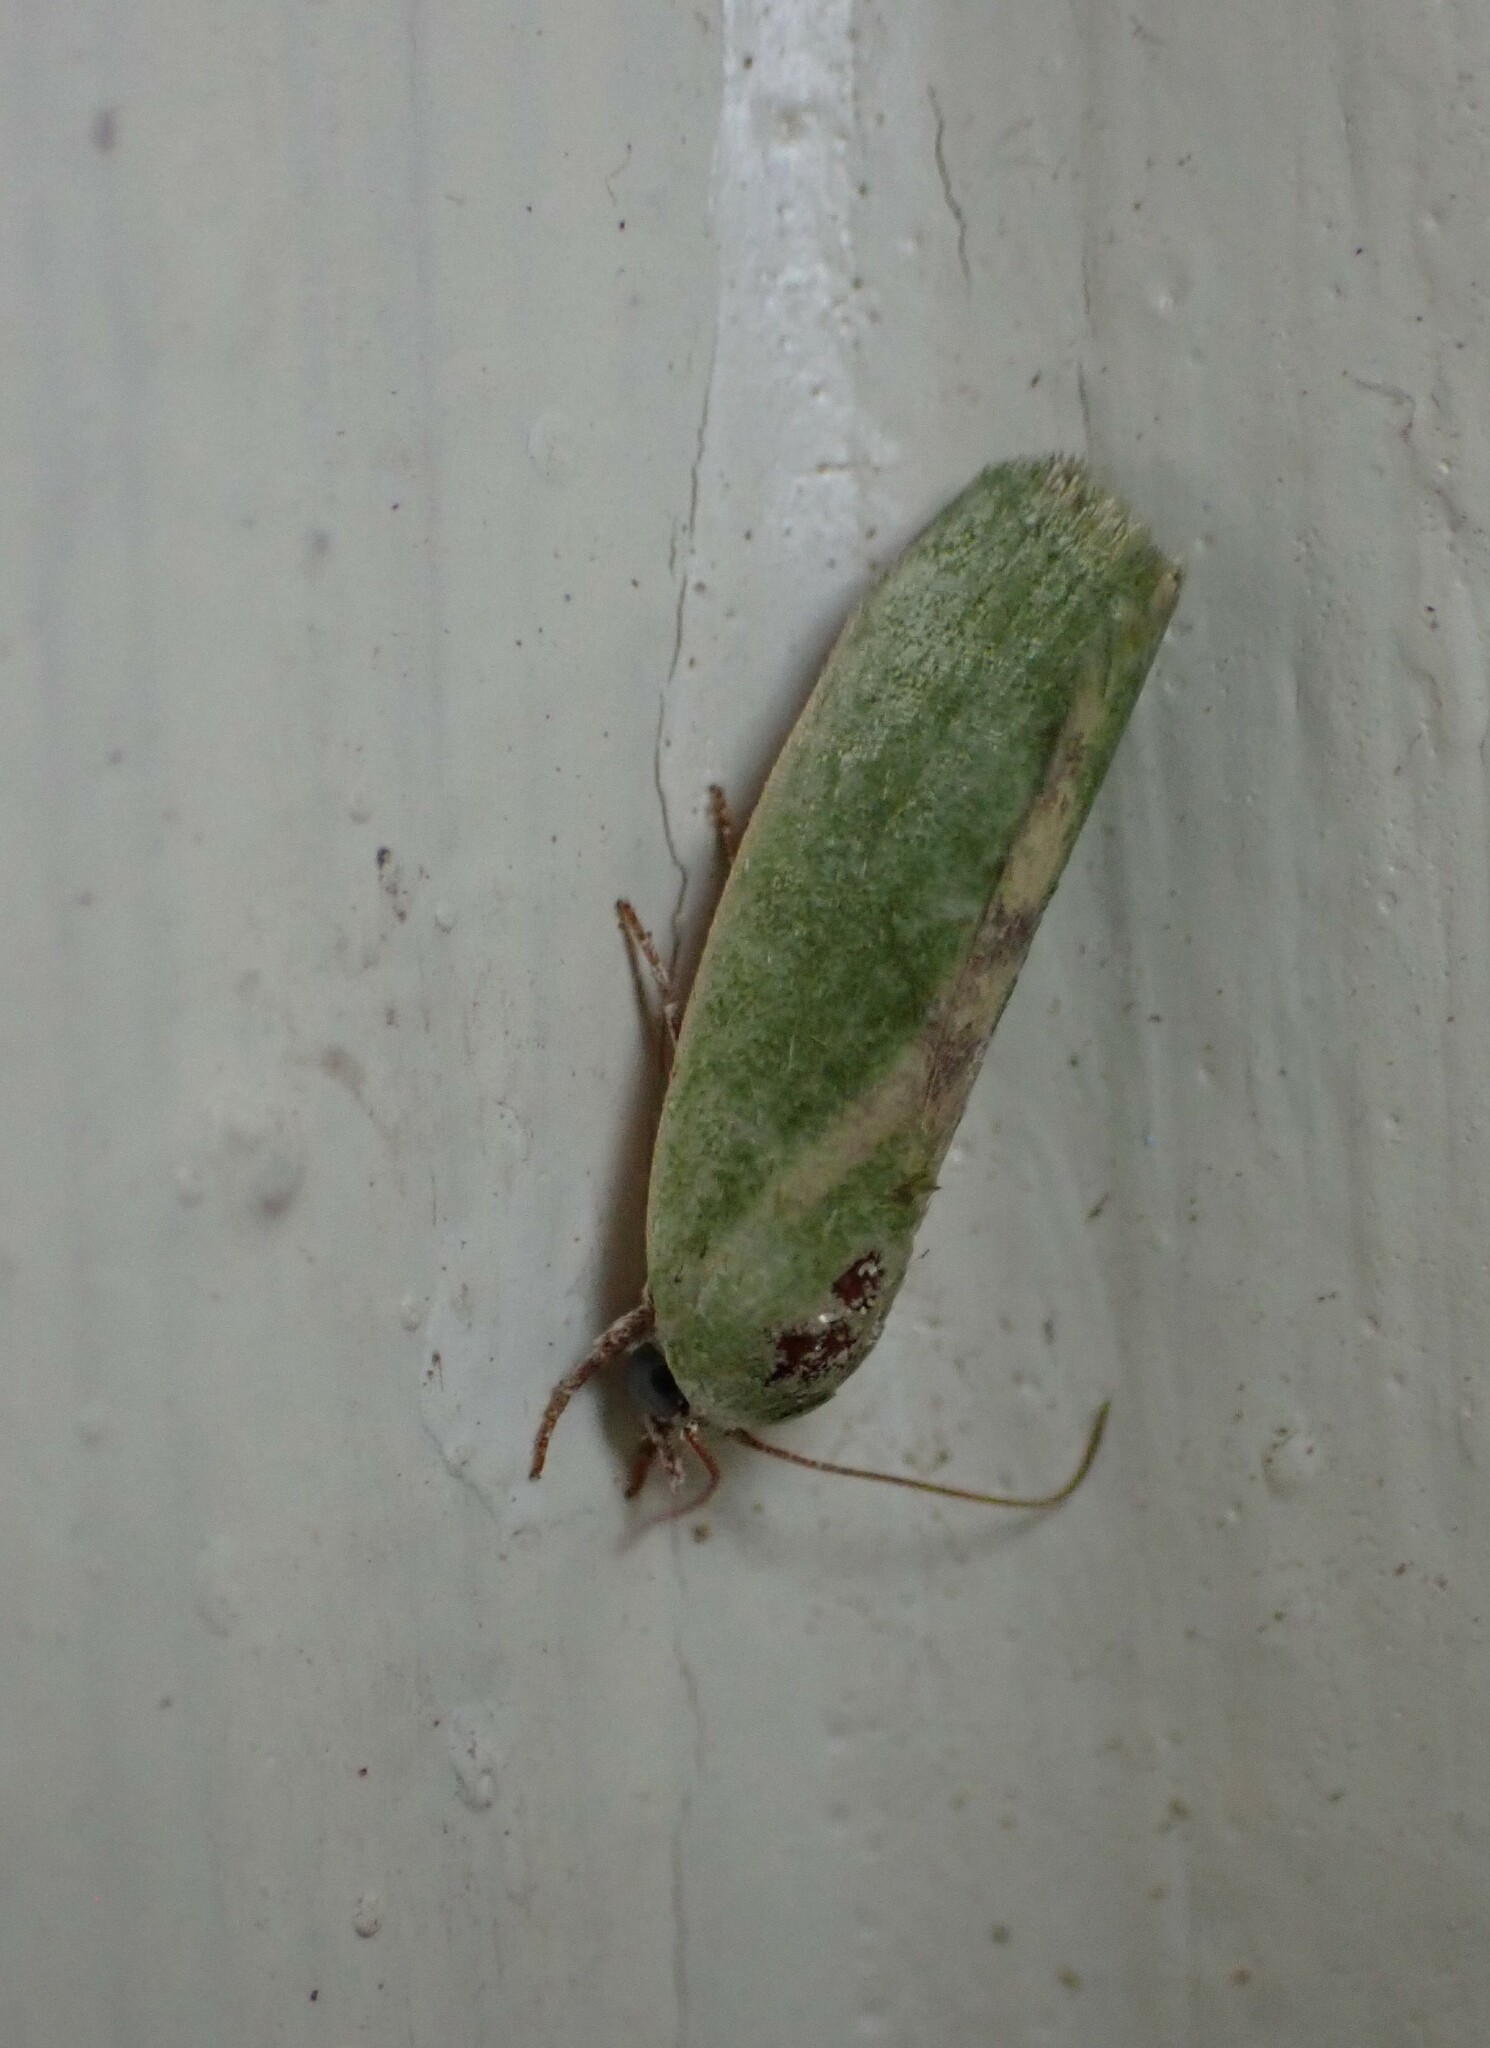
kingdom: Animalia
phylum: Arthropoda
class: Insecta
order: Lepidoptera
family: Nolidae
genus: Earias
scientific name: Earias insulana
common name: Egyptian bollworm
